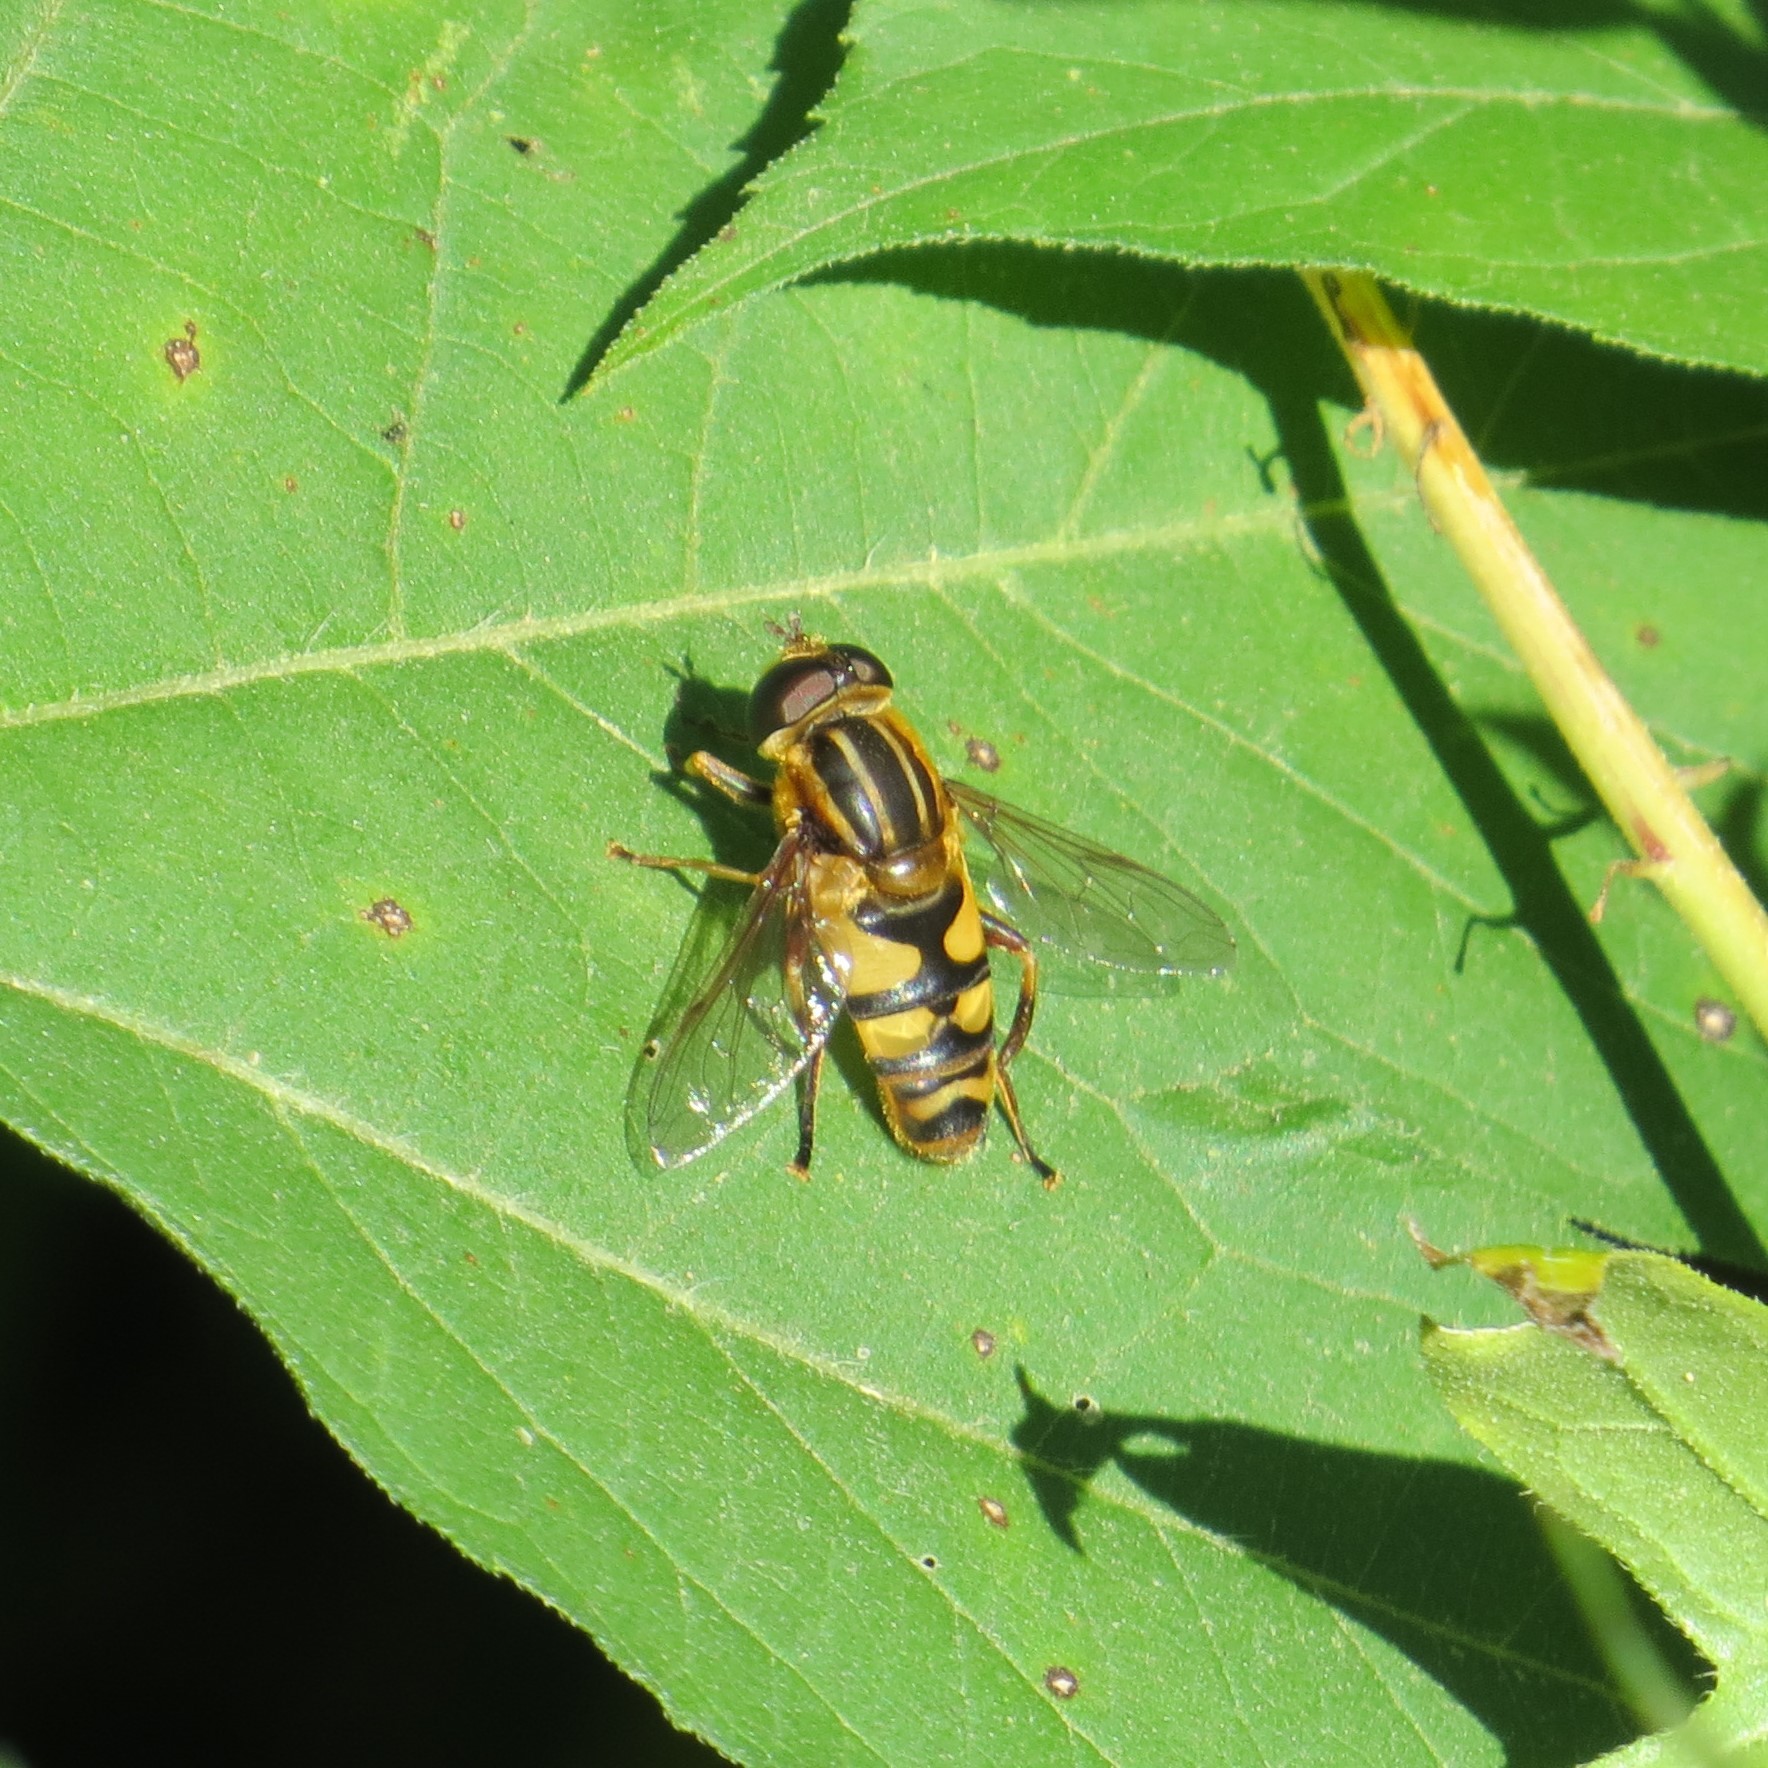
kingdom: Animalia
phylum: Arthropoda
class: Insecta
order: Diptera
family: Syrphidae
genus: Helophilus
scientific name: Helophilus fasciatus
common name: Narrow-headed marsh fly
